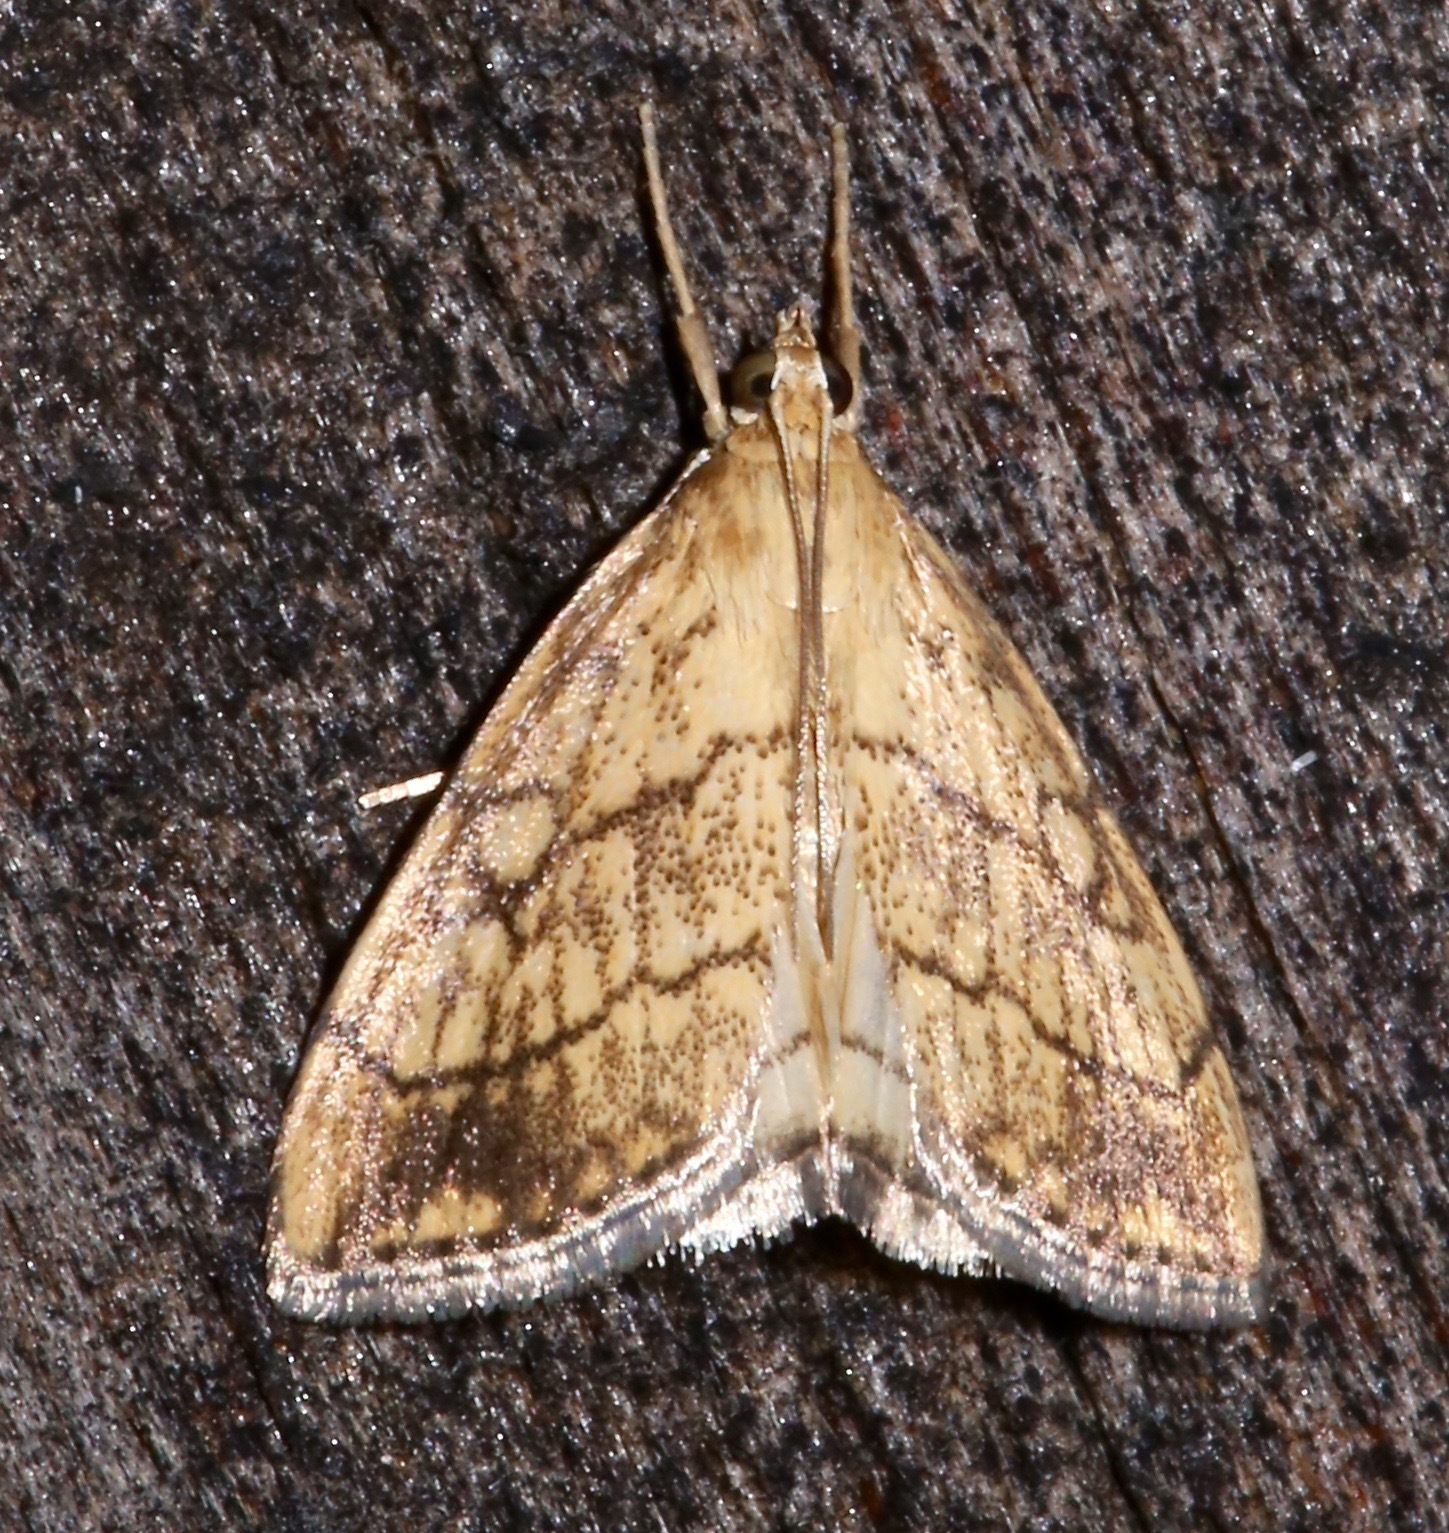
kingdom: Animalia
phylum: Arthropoda
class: Insecta
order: Lepidoptera
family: Crambidae
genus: Evergestis
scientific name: Evergestis pallidata
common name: Chequered pearl
